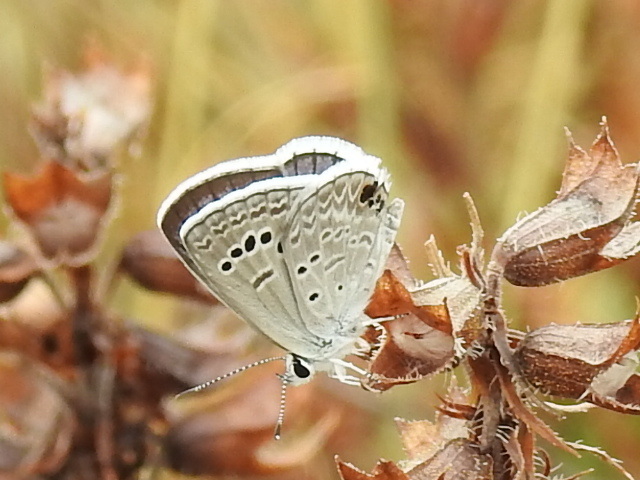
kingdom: Animalia
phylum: Arthropoda
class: Insecta
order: Lepidoptera
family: Lycaenidae
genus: Echinargus
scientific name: Echinargus isola
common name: Reakirt's blue
